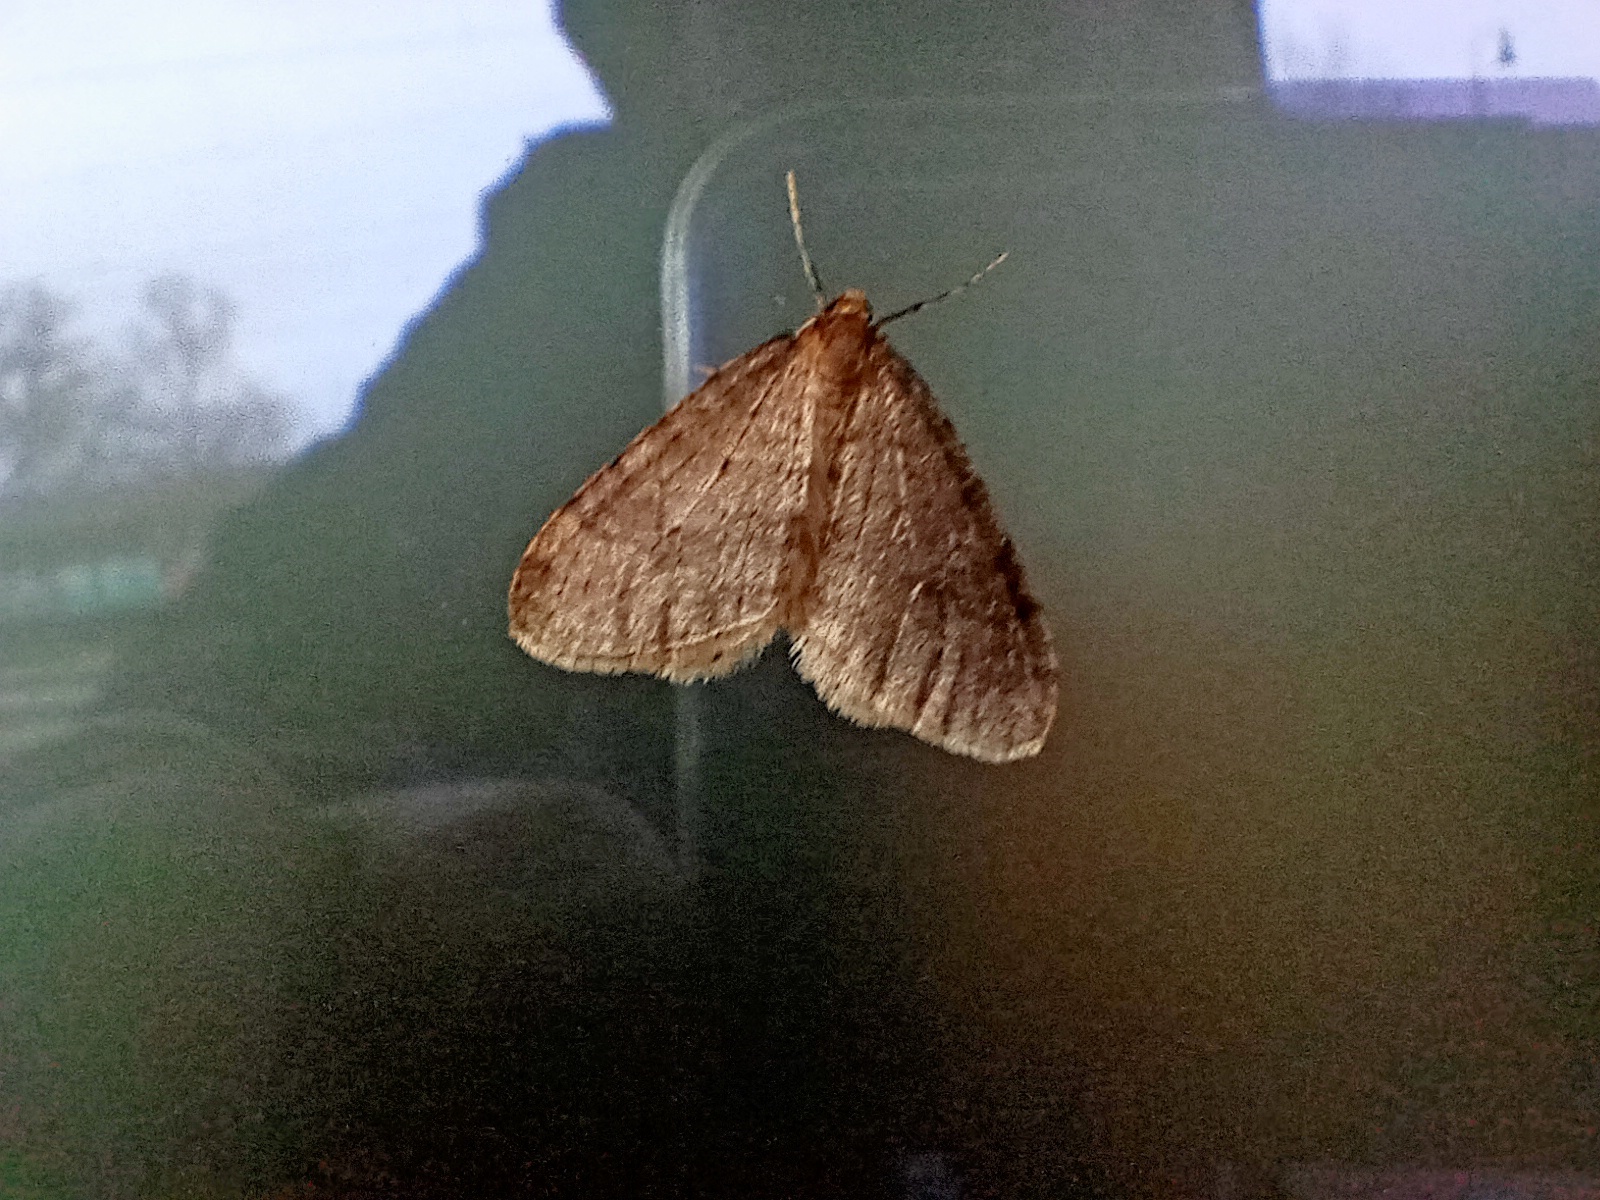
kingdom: Animalia
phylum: Arthropoda
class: Insecta
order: Lepidoptera
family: Geometridae
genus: Operophtera
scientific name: Operophtera brumata
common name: Winter moth
